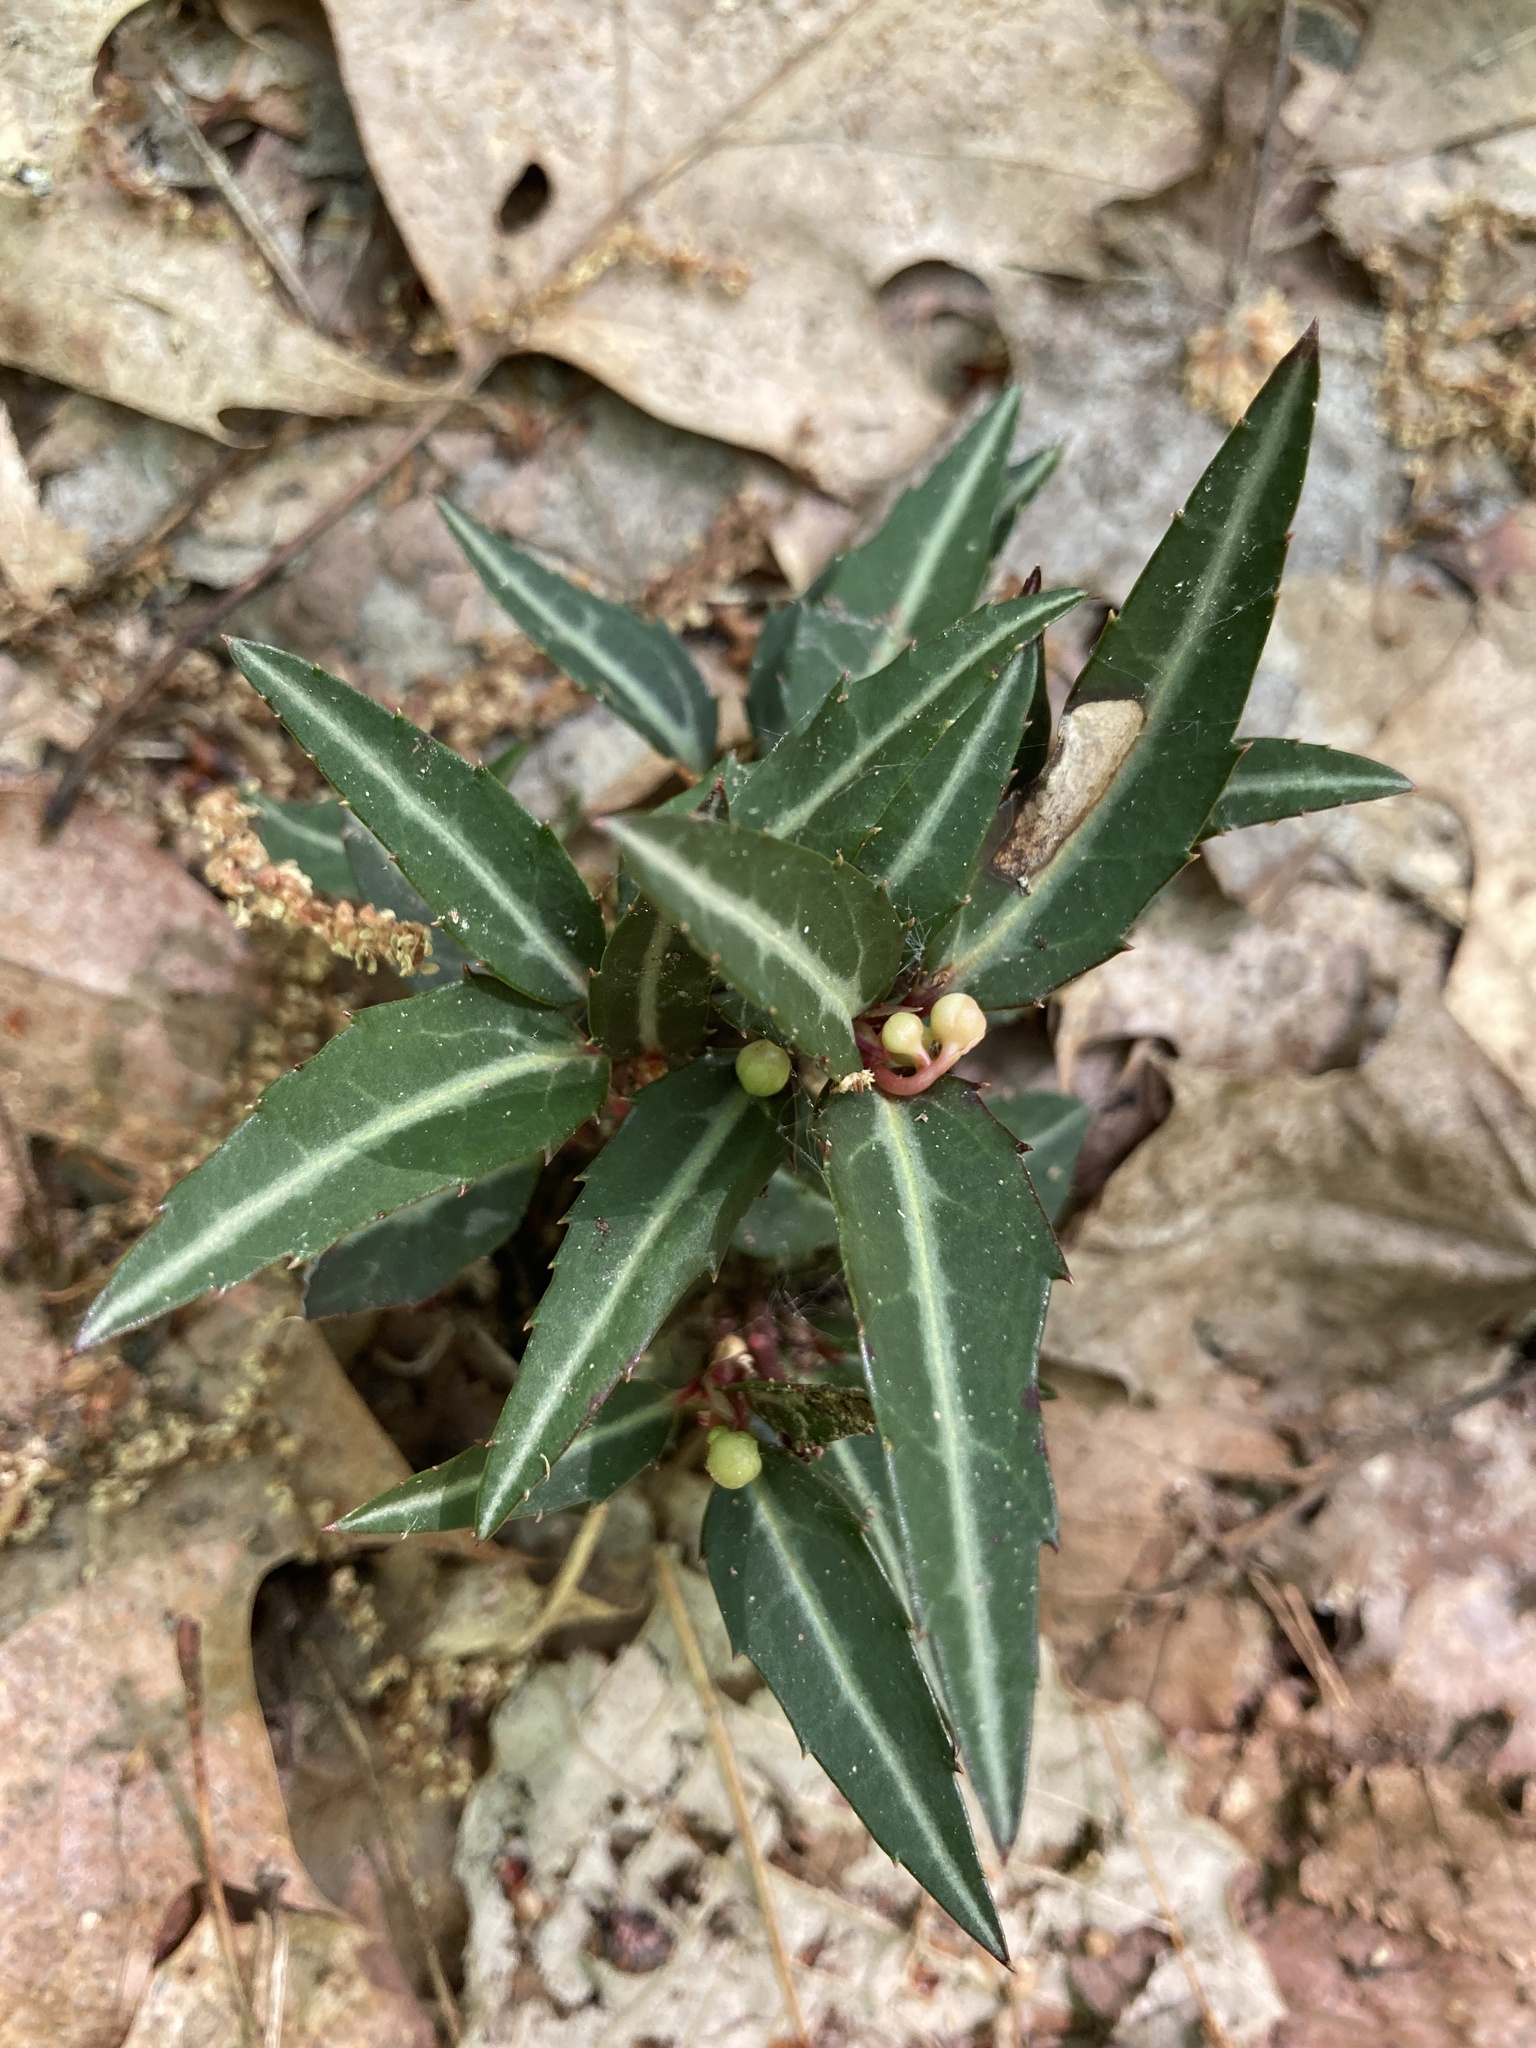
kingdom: Plantae
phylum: Tracheophyta
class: Magnoliopsida
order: Ericales
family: Ericaceae
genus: Chimaphila
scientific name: Chimaphila maculata
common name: Spotted pipsissewa
